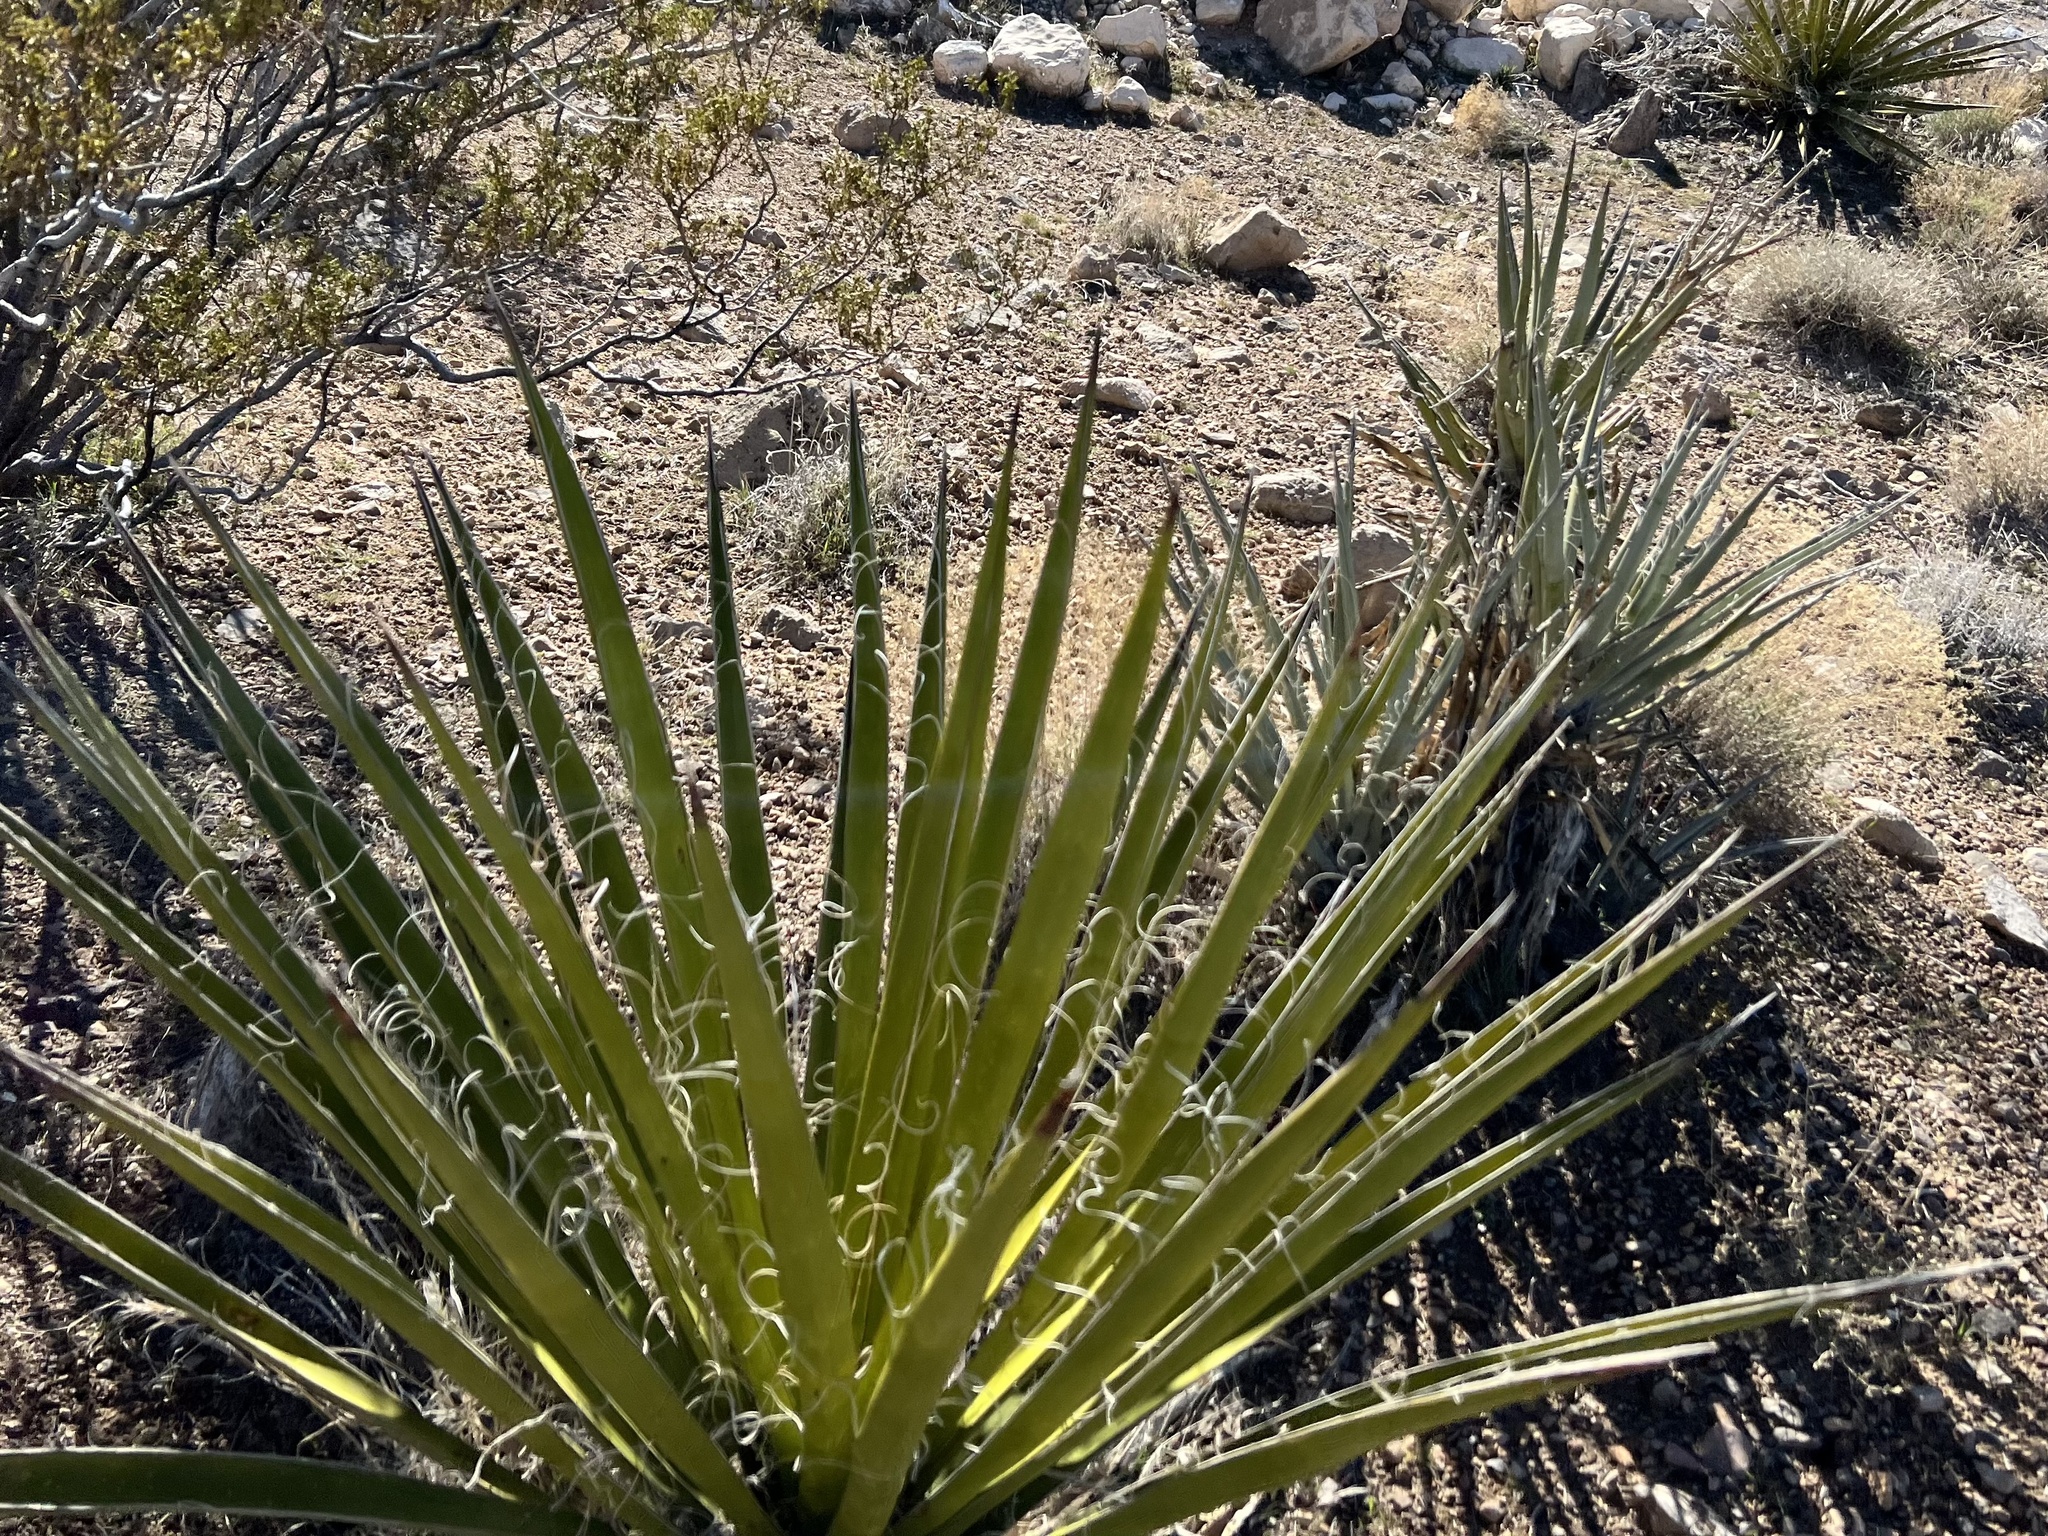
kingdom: Plantae
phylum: Tracheophyta
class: Liliopsida
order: Asparagales
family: Asparagaceae
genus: Yucca
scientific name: Yucca schidigera
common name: Mojave yucca
